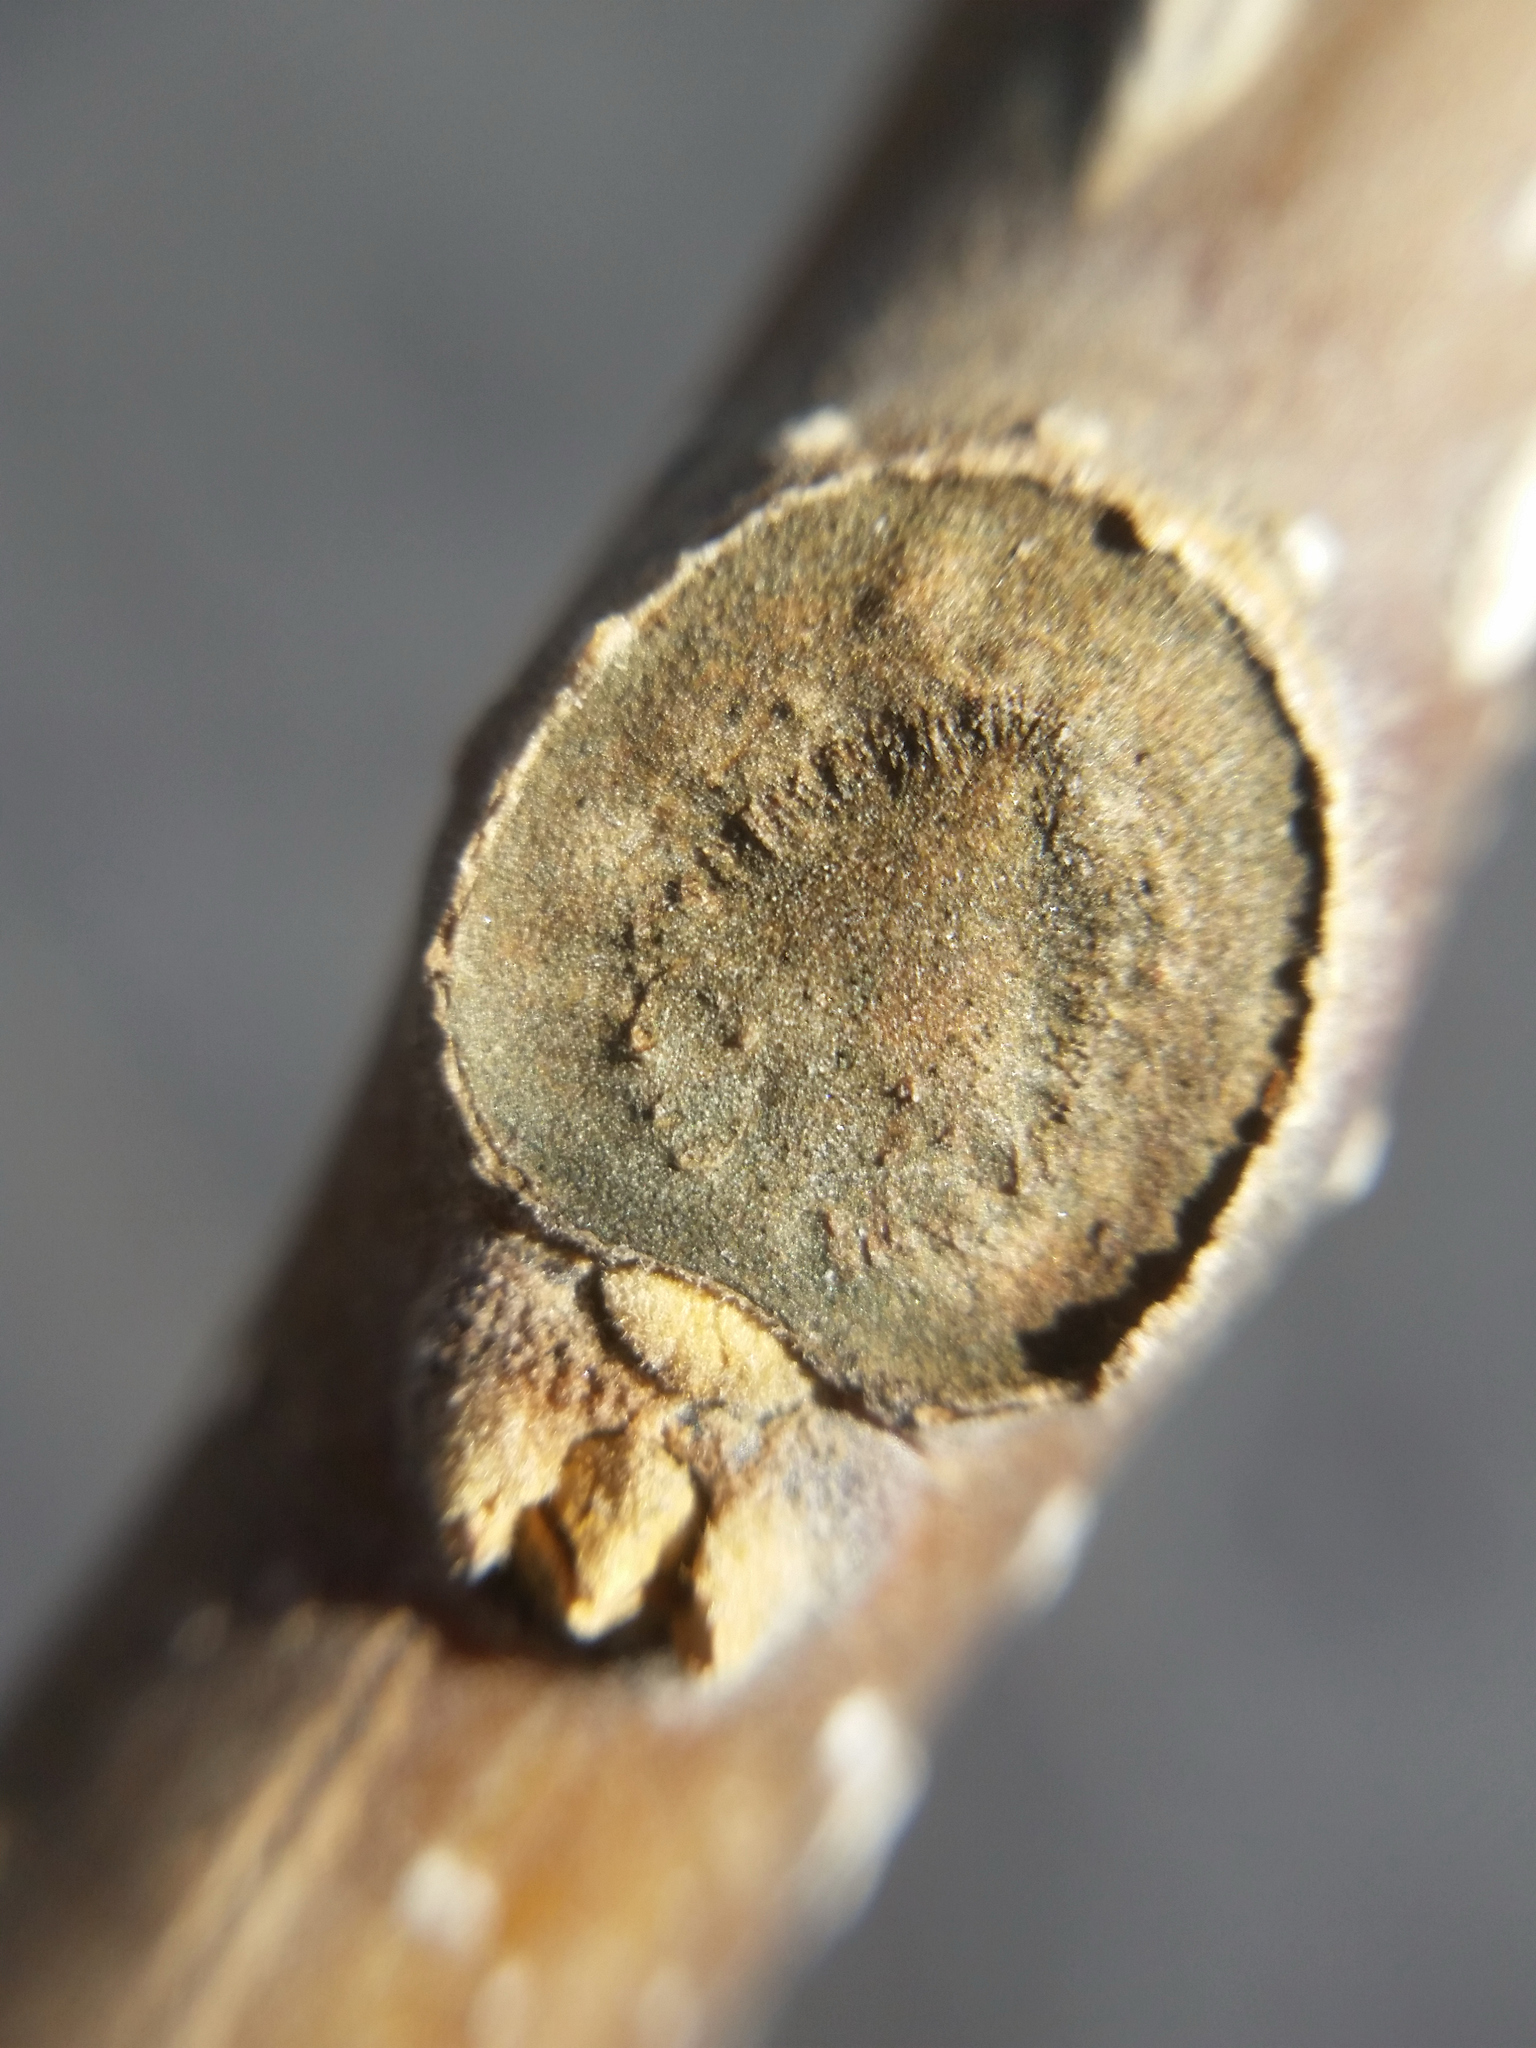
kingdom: Plantae
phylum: Tracheophyta
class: Magnoliopsida
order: Lamiales
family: Paulowniaceae
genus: Paulownia
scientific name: Paulownia tomentosa
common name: Foxglove-tree
